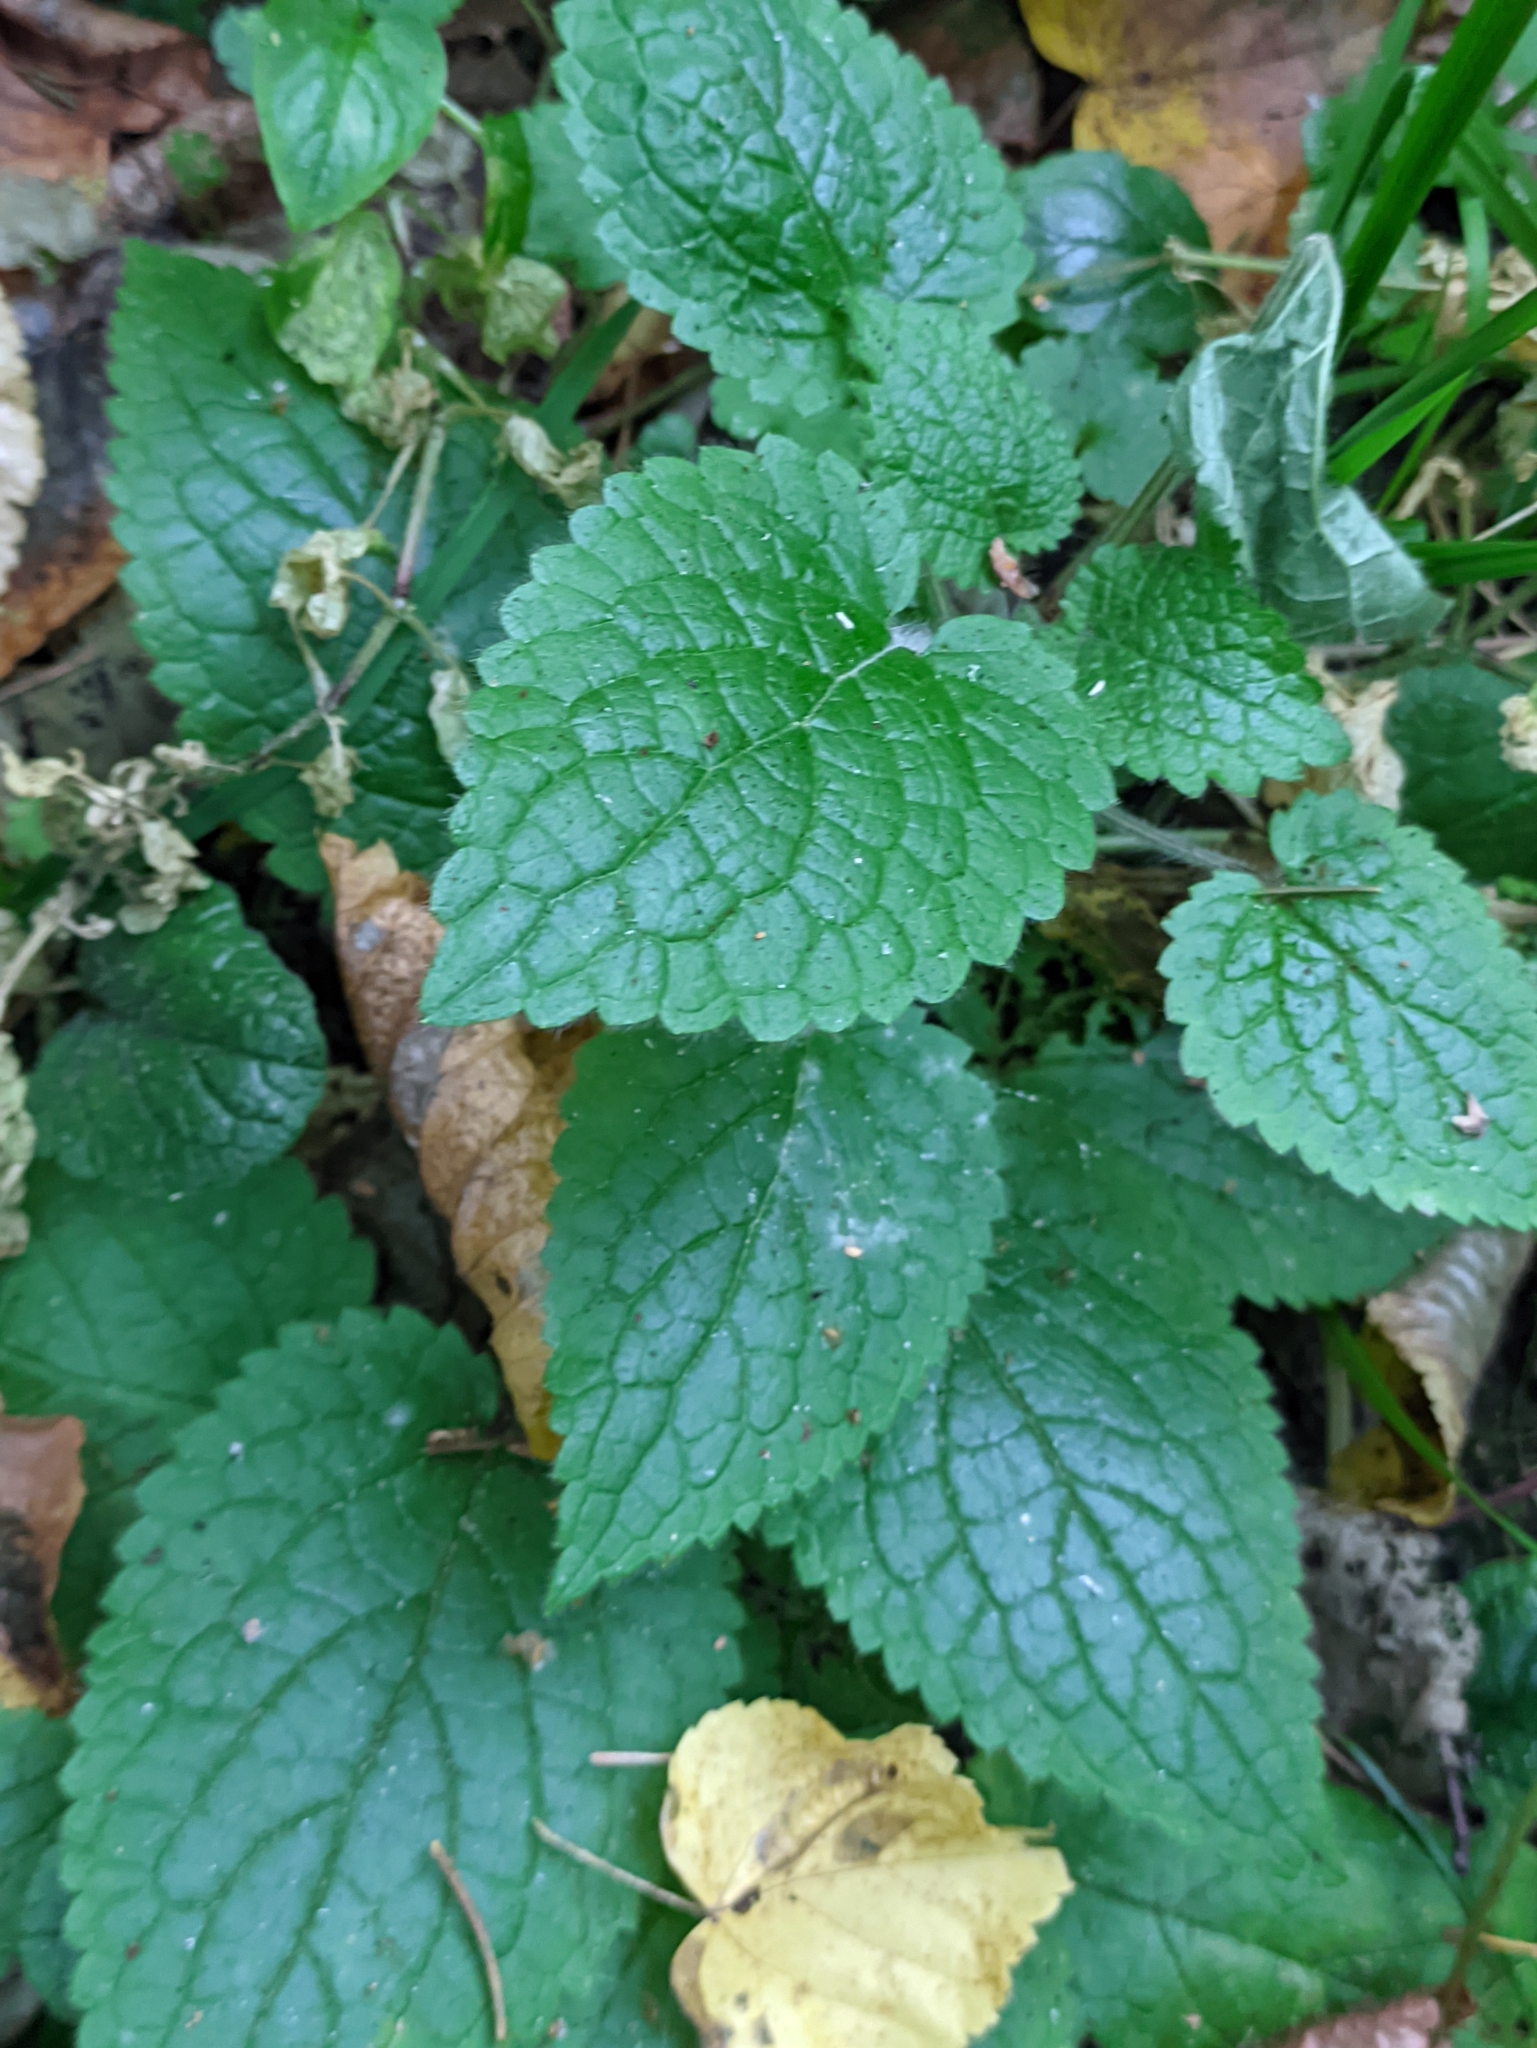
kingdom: Plantae
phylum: Tracheophyta
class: Magnoliopsida
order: Lamiales
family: Lamiaceae
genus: Stachys
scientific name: Stachys sylvatica
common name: Hedge woundwort
